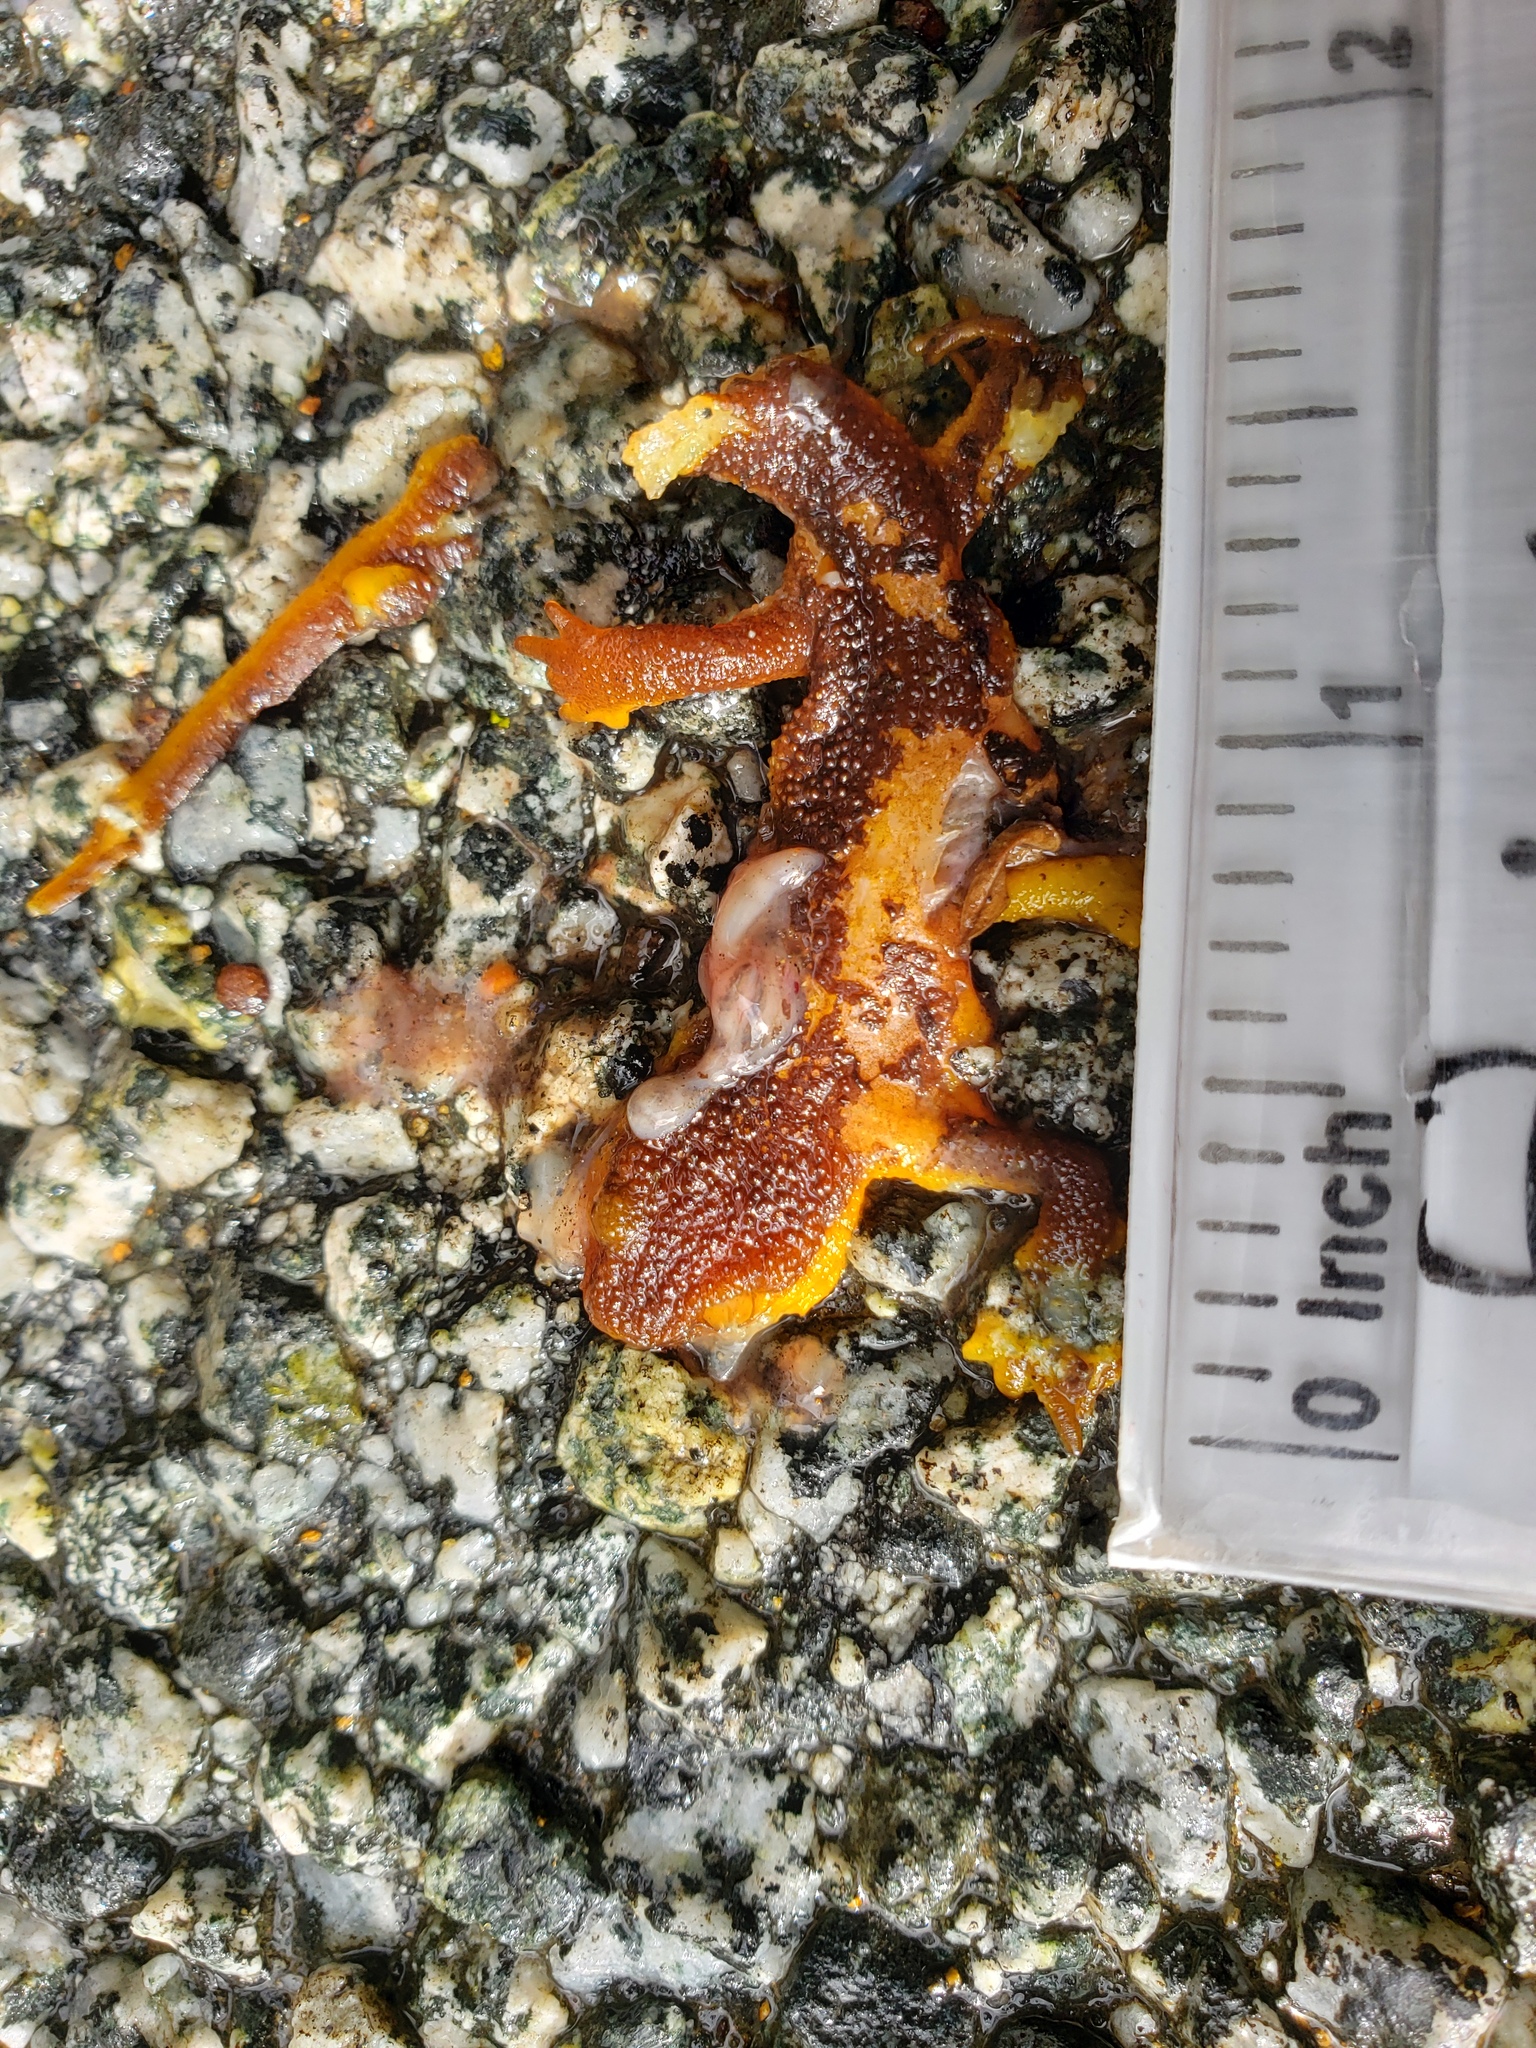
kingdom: Animalia
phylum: Chordata
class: Amphibia
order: Caudata
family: Salamandridae
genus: Taricha
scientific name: Taricha
